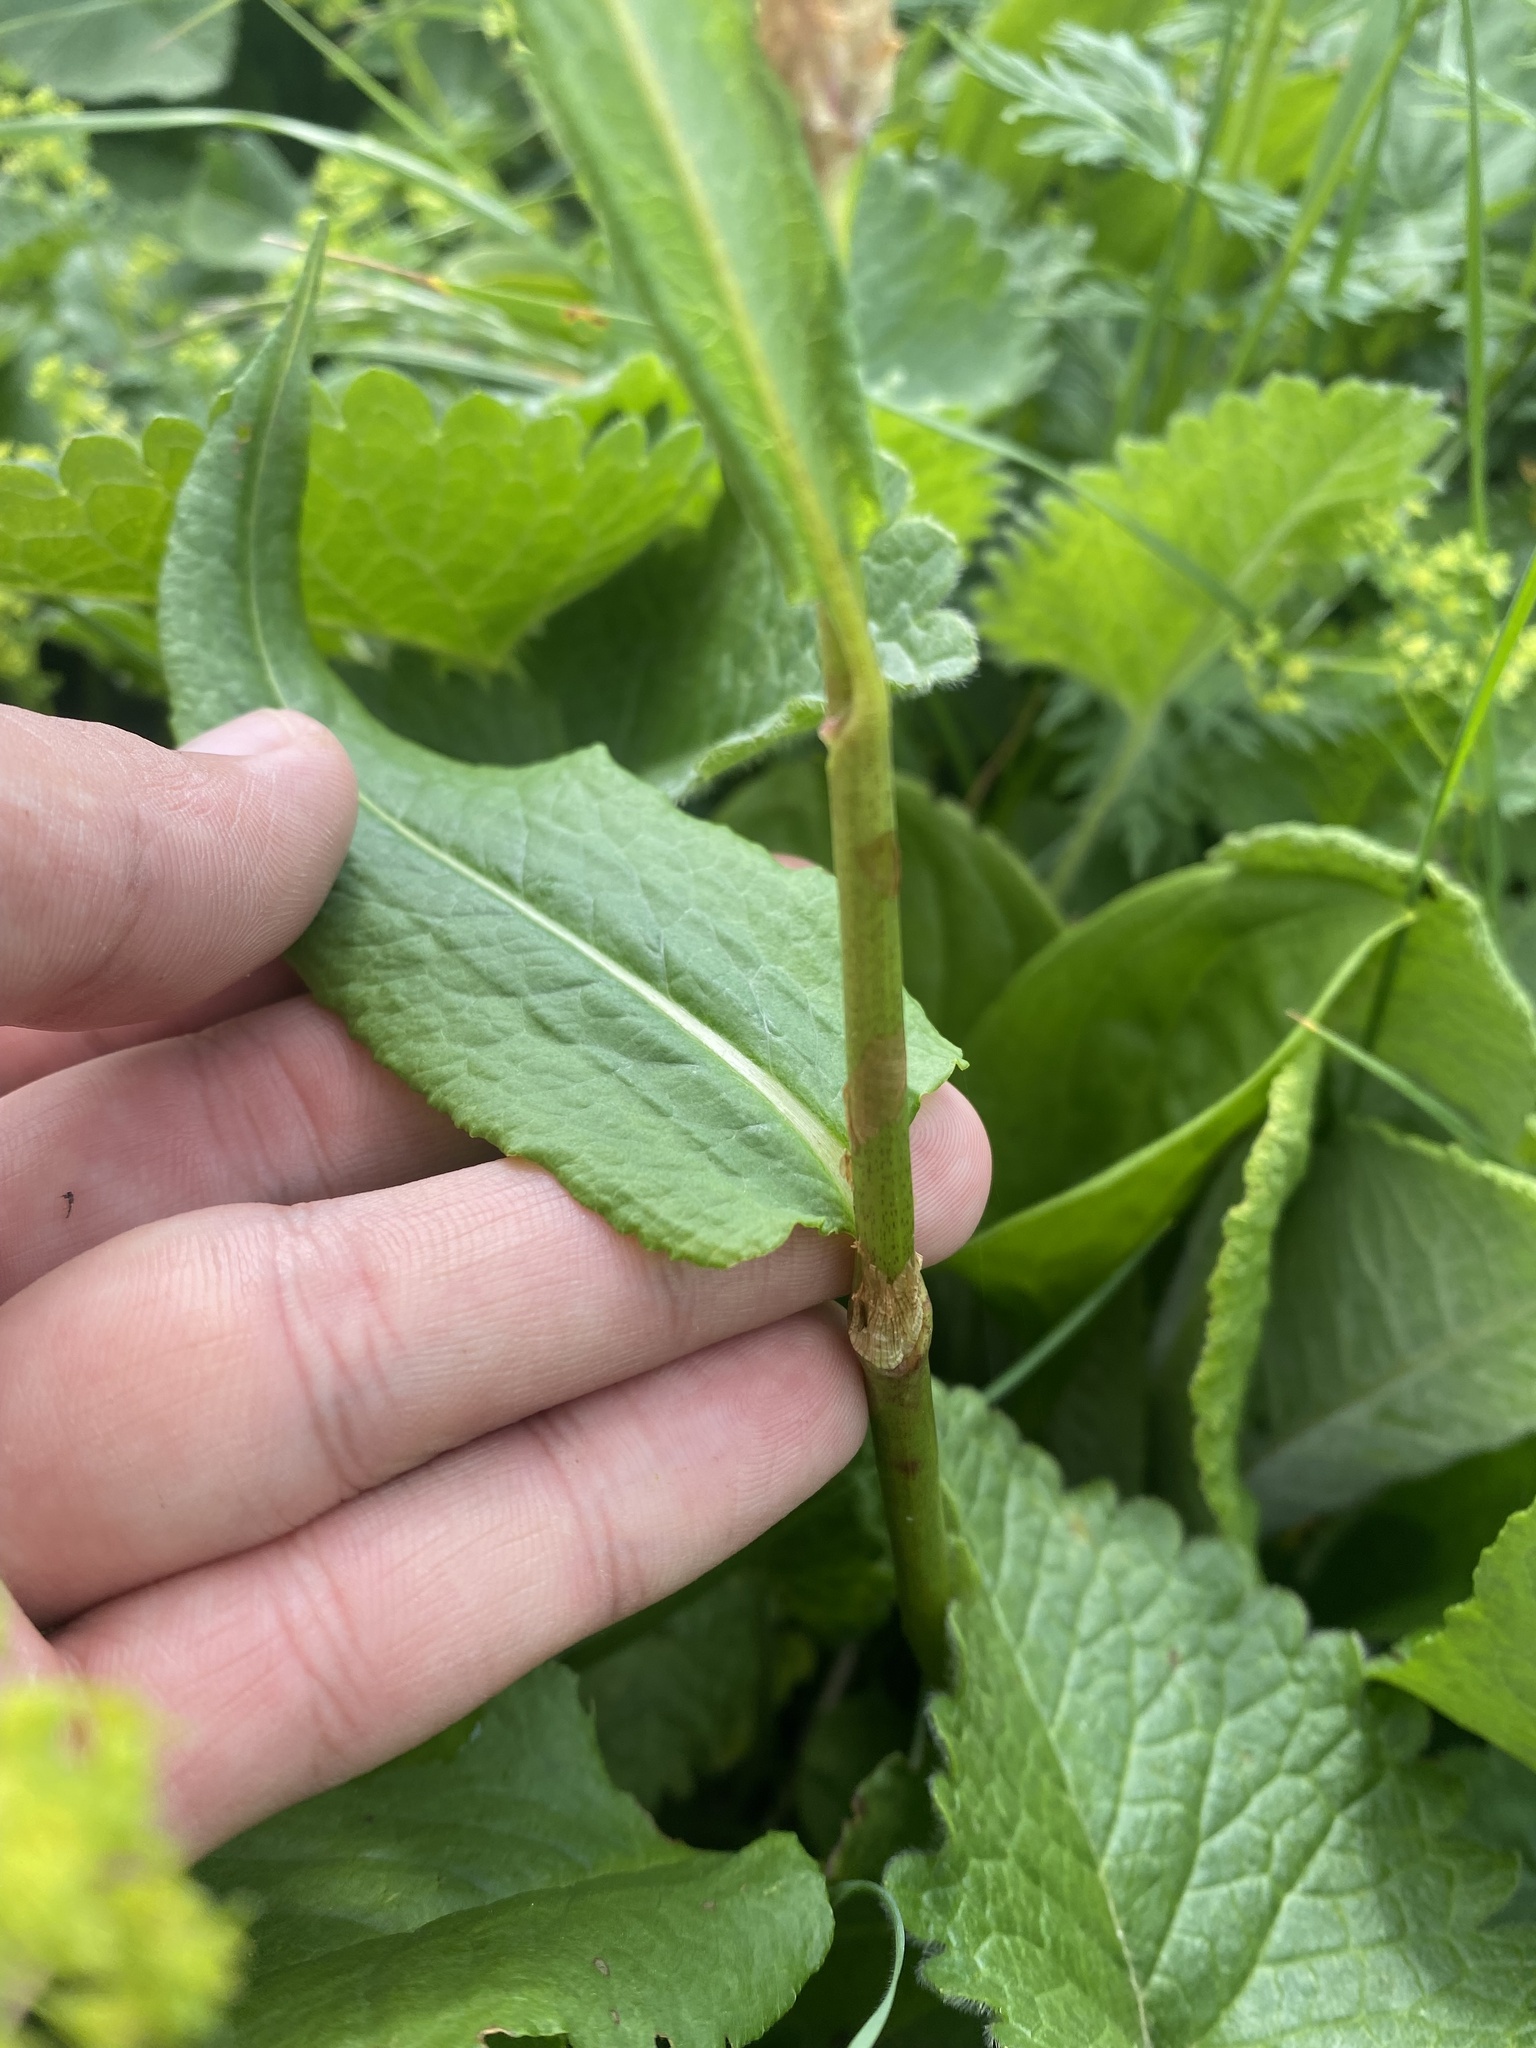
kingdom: Plantae
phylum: Tracheophyta
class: Magnoliopsida
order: Caryophyllales
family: Polygonaceae
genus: Bistorta
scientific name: Bistorta carnea
